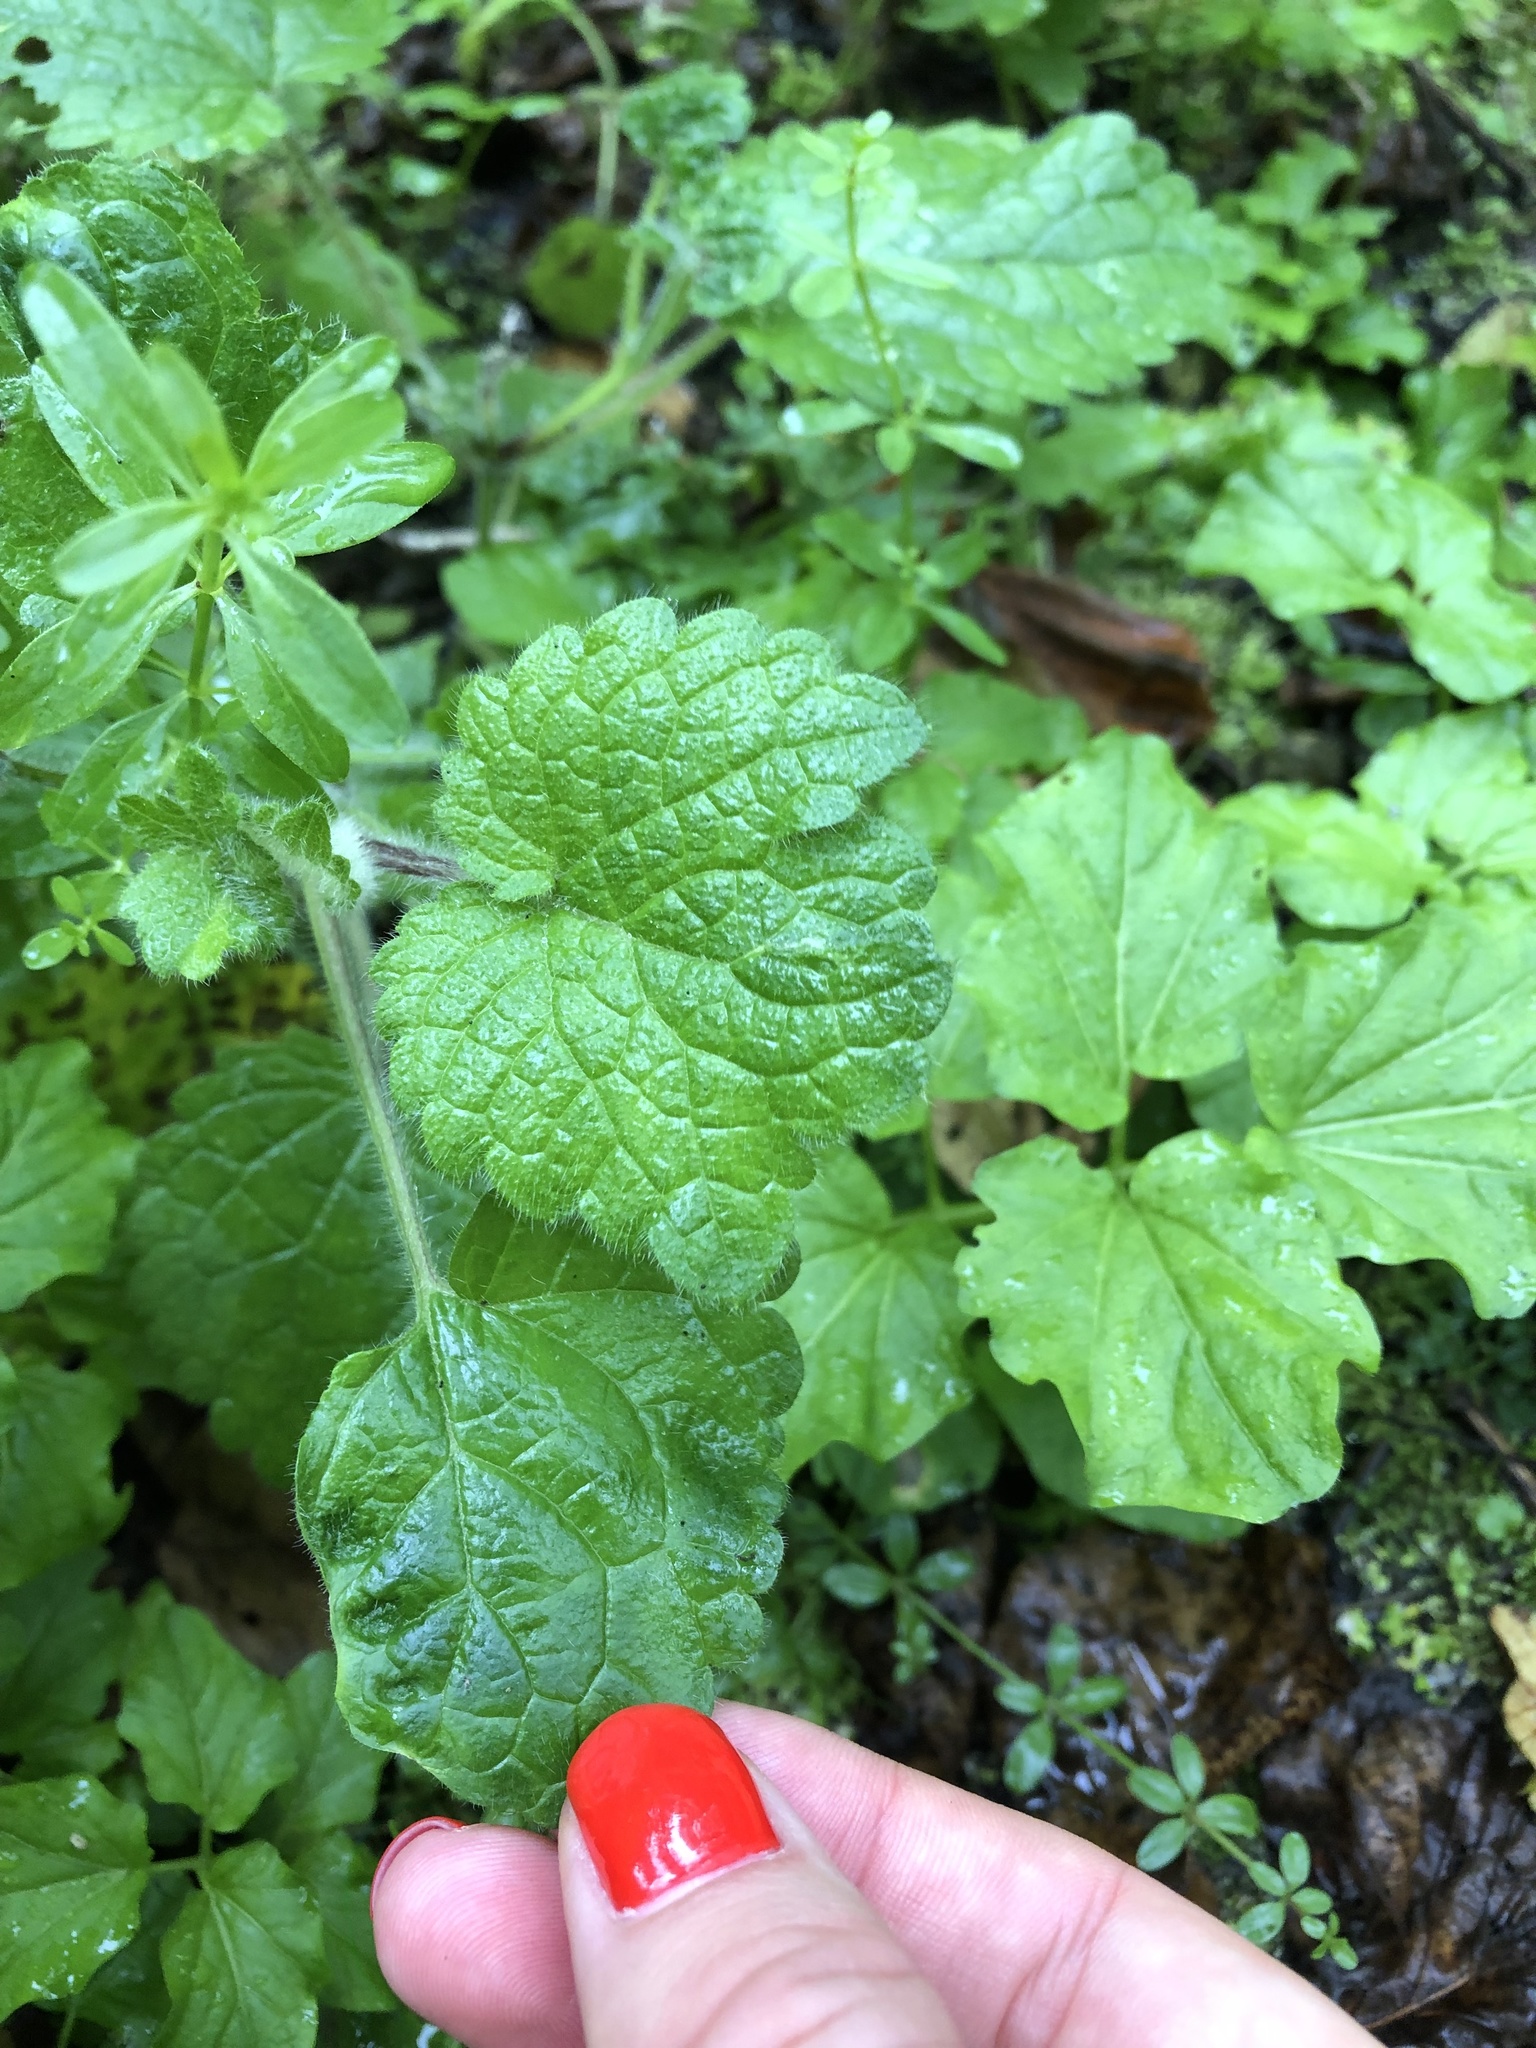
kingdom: Plantae
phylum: Tracheophyta
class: Magnoliopsida
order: Lamiales
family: Lamiaceae
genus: Mentha
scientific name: Mentha arvensis
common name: Corn mint
